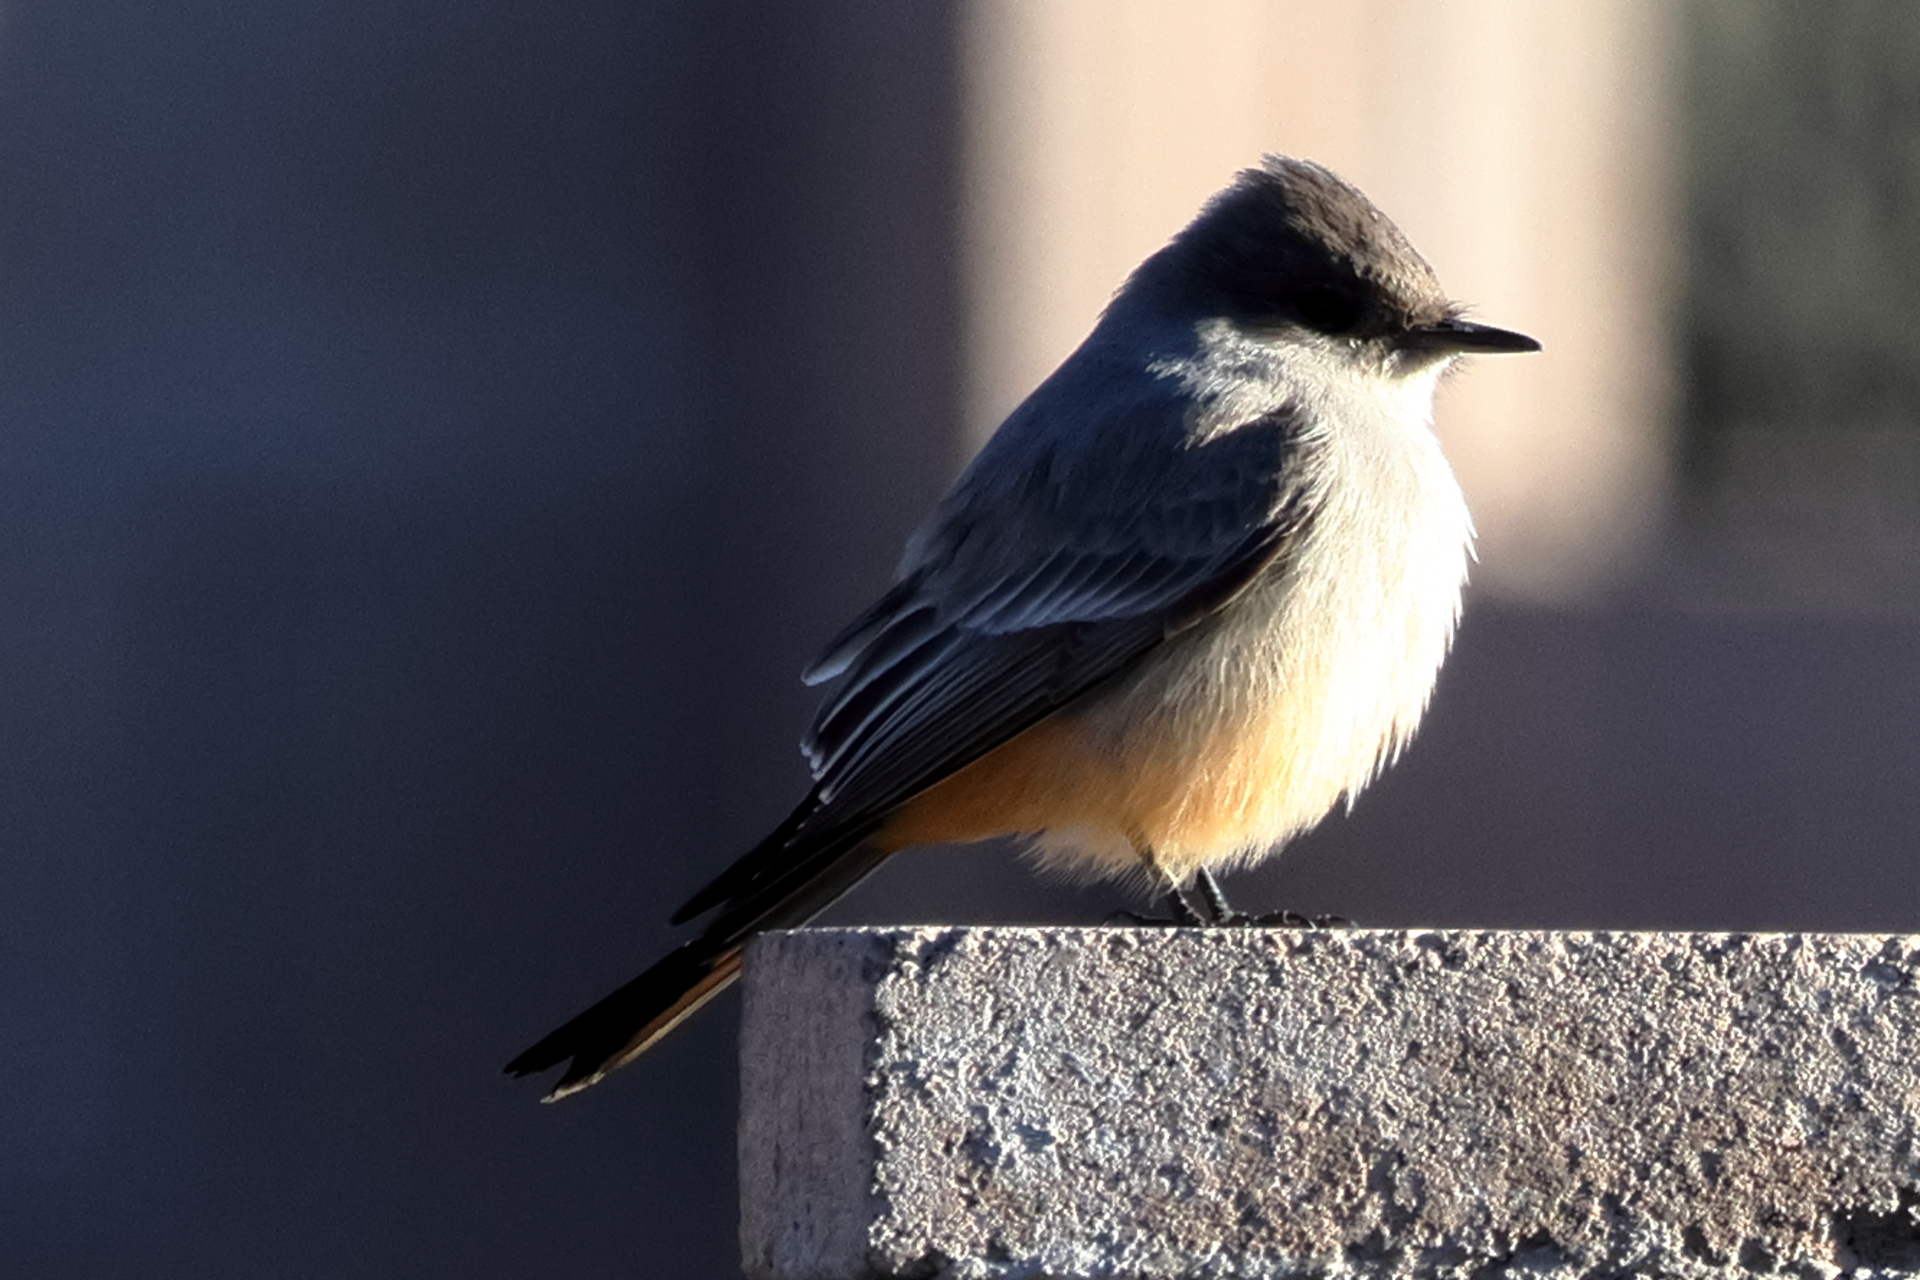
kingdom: Animalia
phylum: Chordata
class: Aves
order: Passeriformes
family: Tyrannidae
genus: Sayornis
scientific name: Sayornis saya
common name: Say's phoebe
